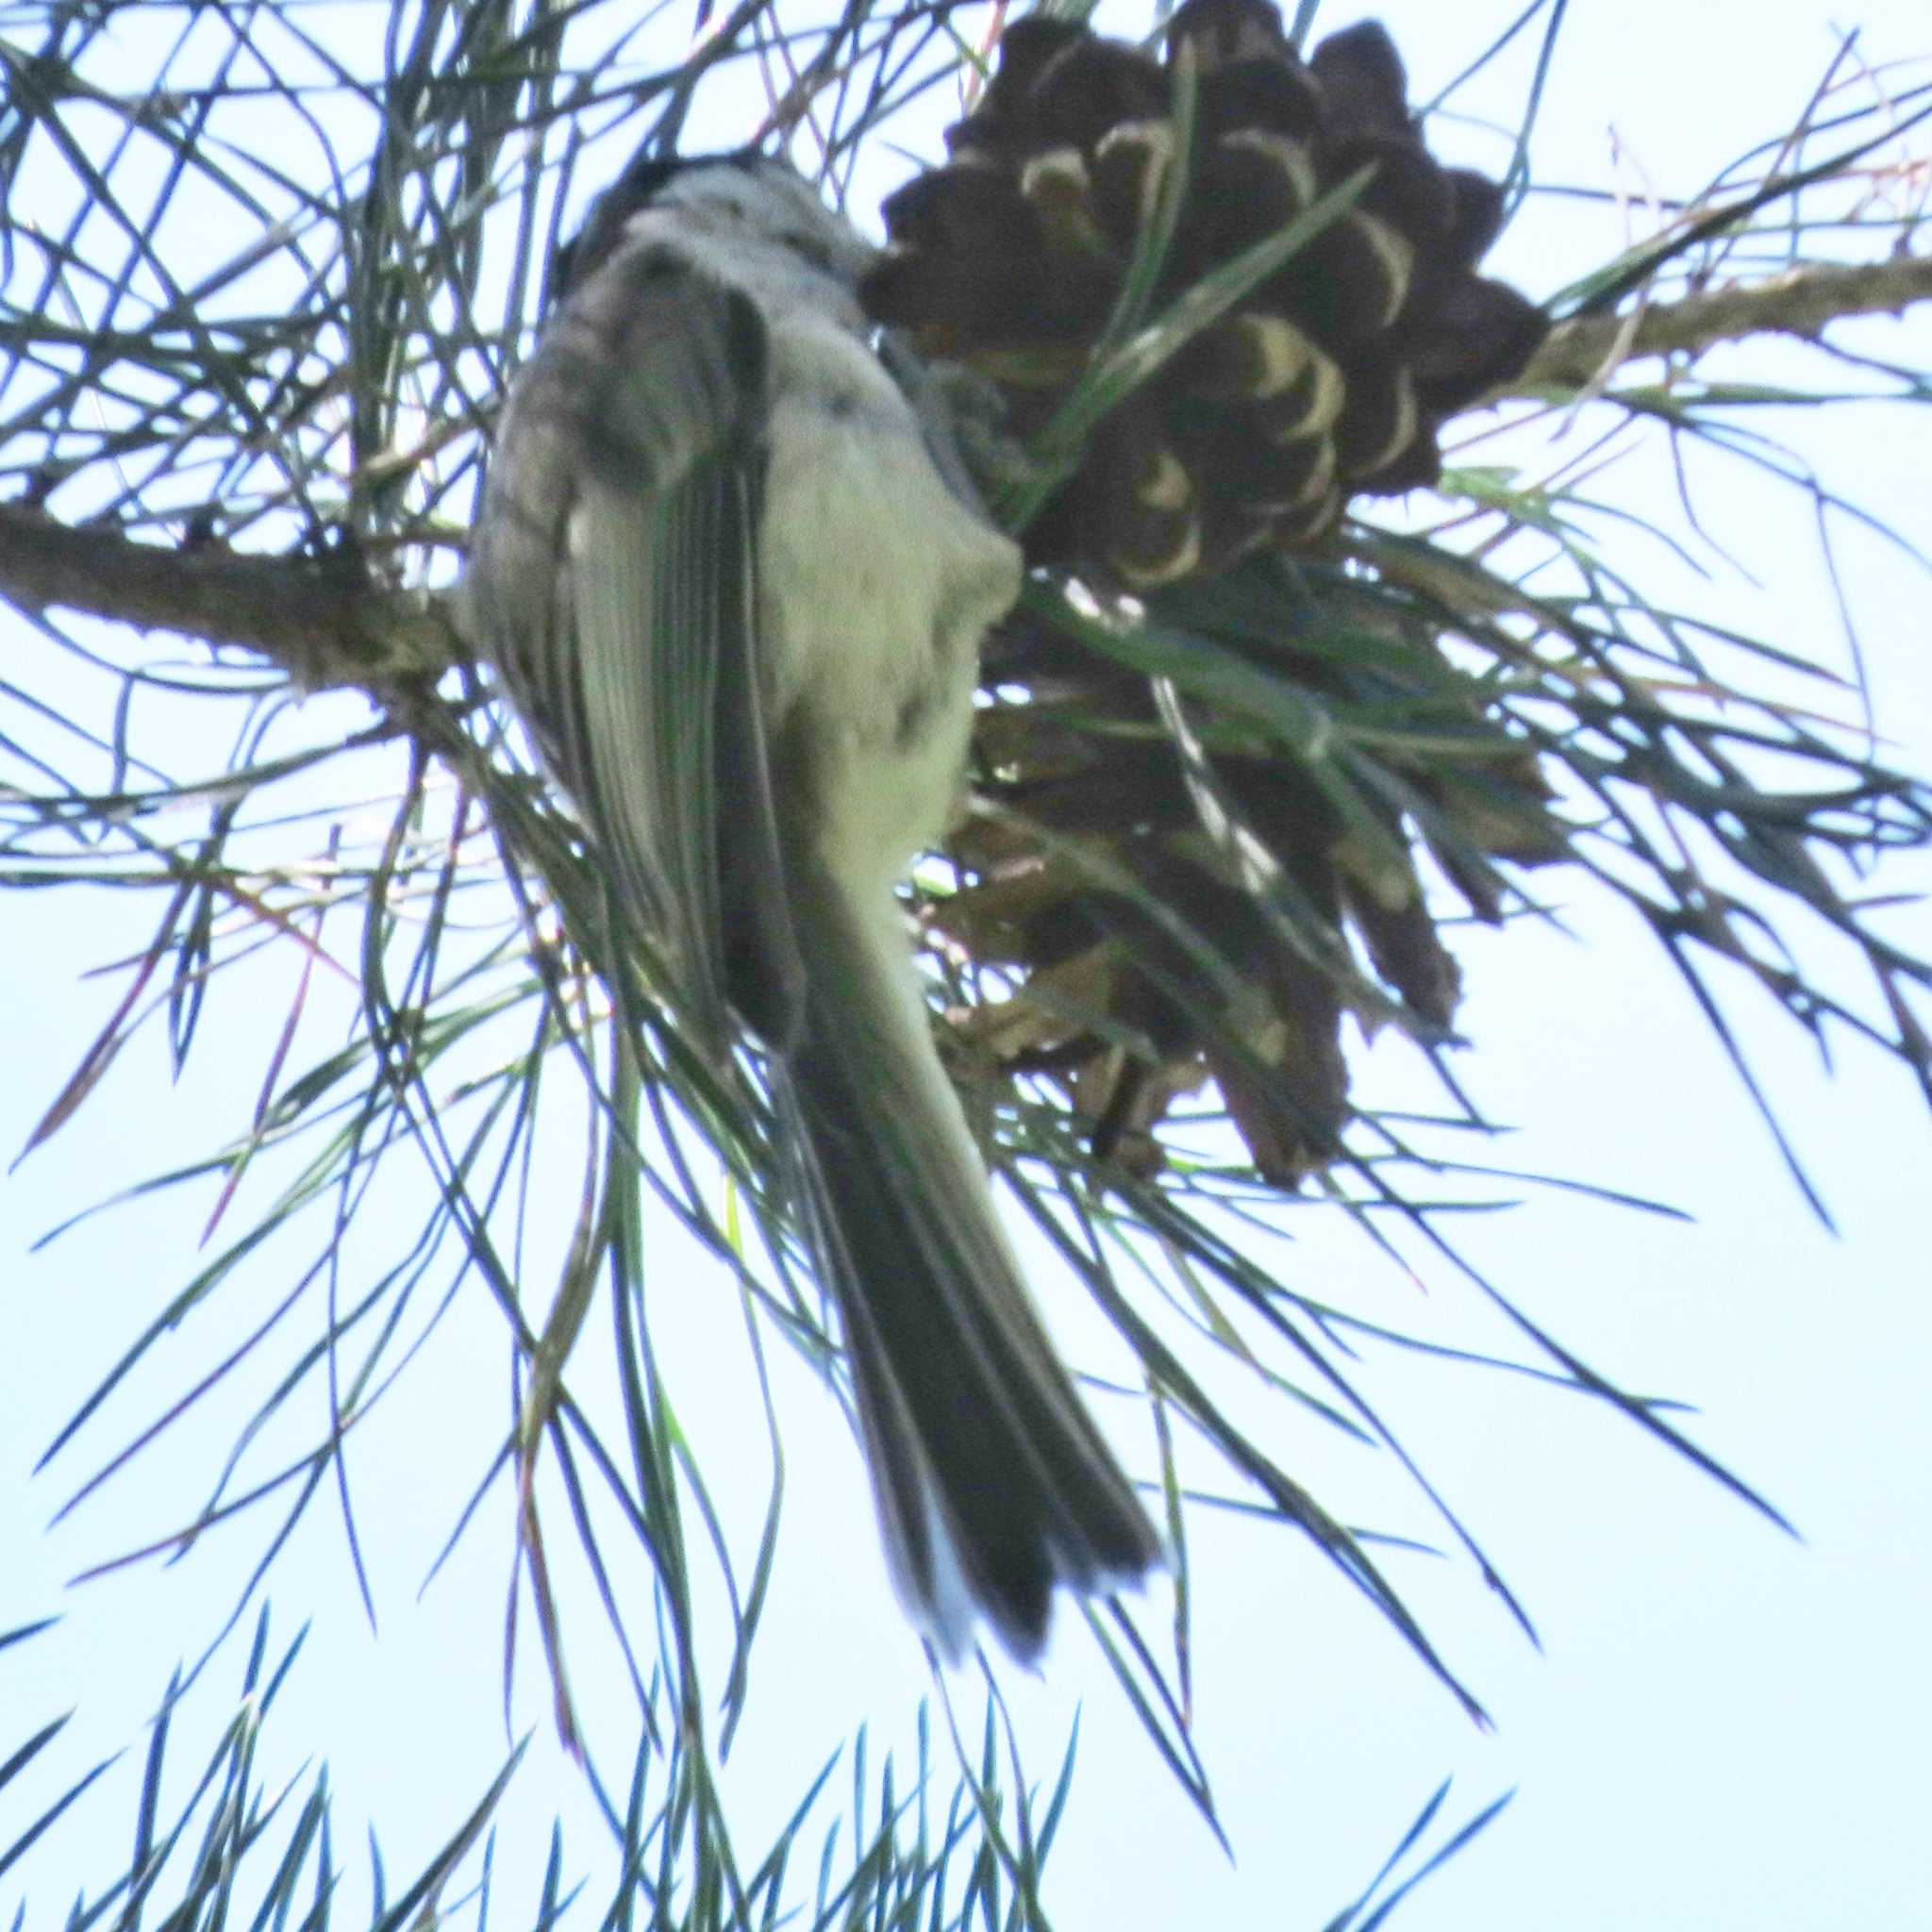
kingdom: Animalia
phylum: Chordata
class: Aves
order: Passeriformes
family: Paridae
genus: Poecile
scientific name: Poecile montanus
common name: Willow tit
